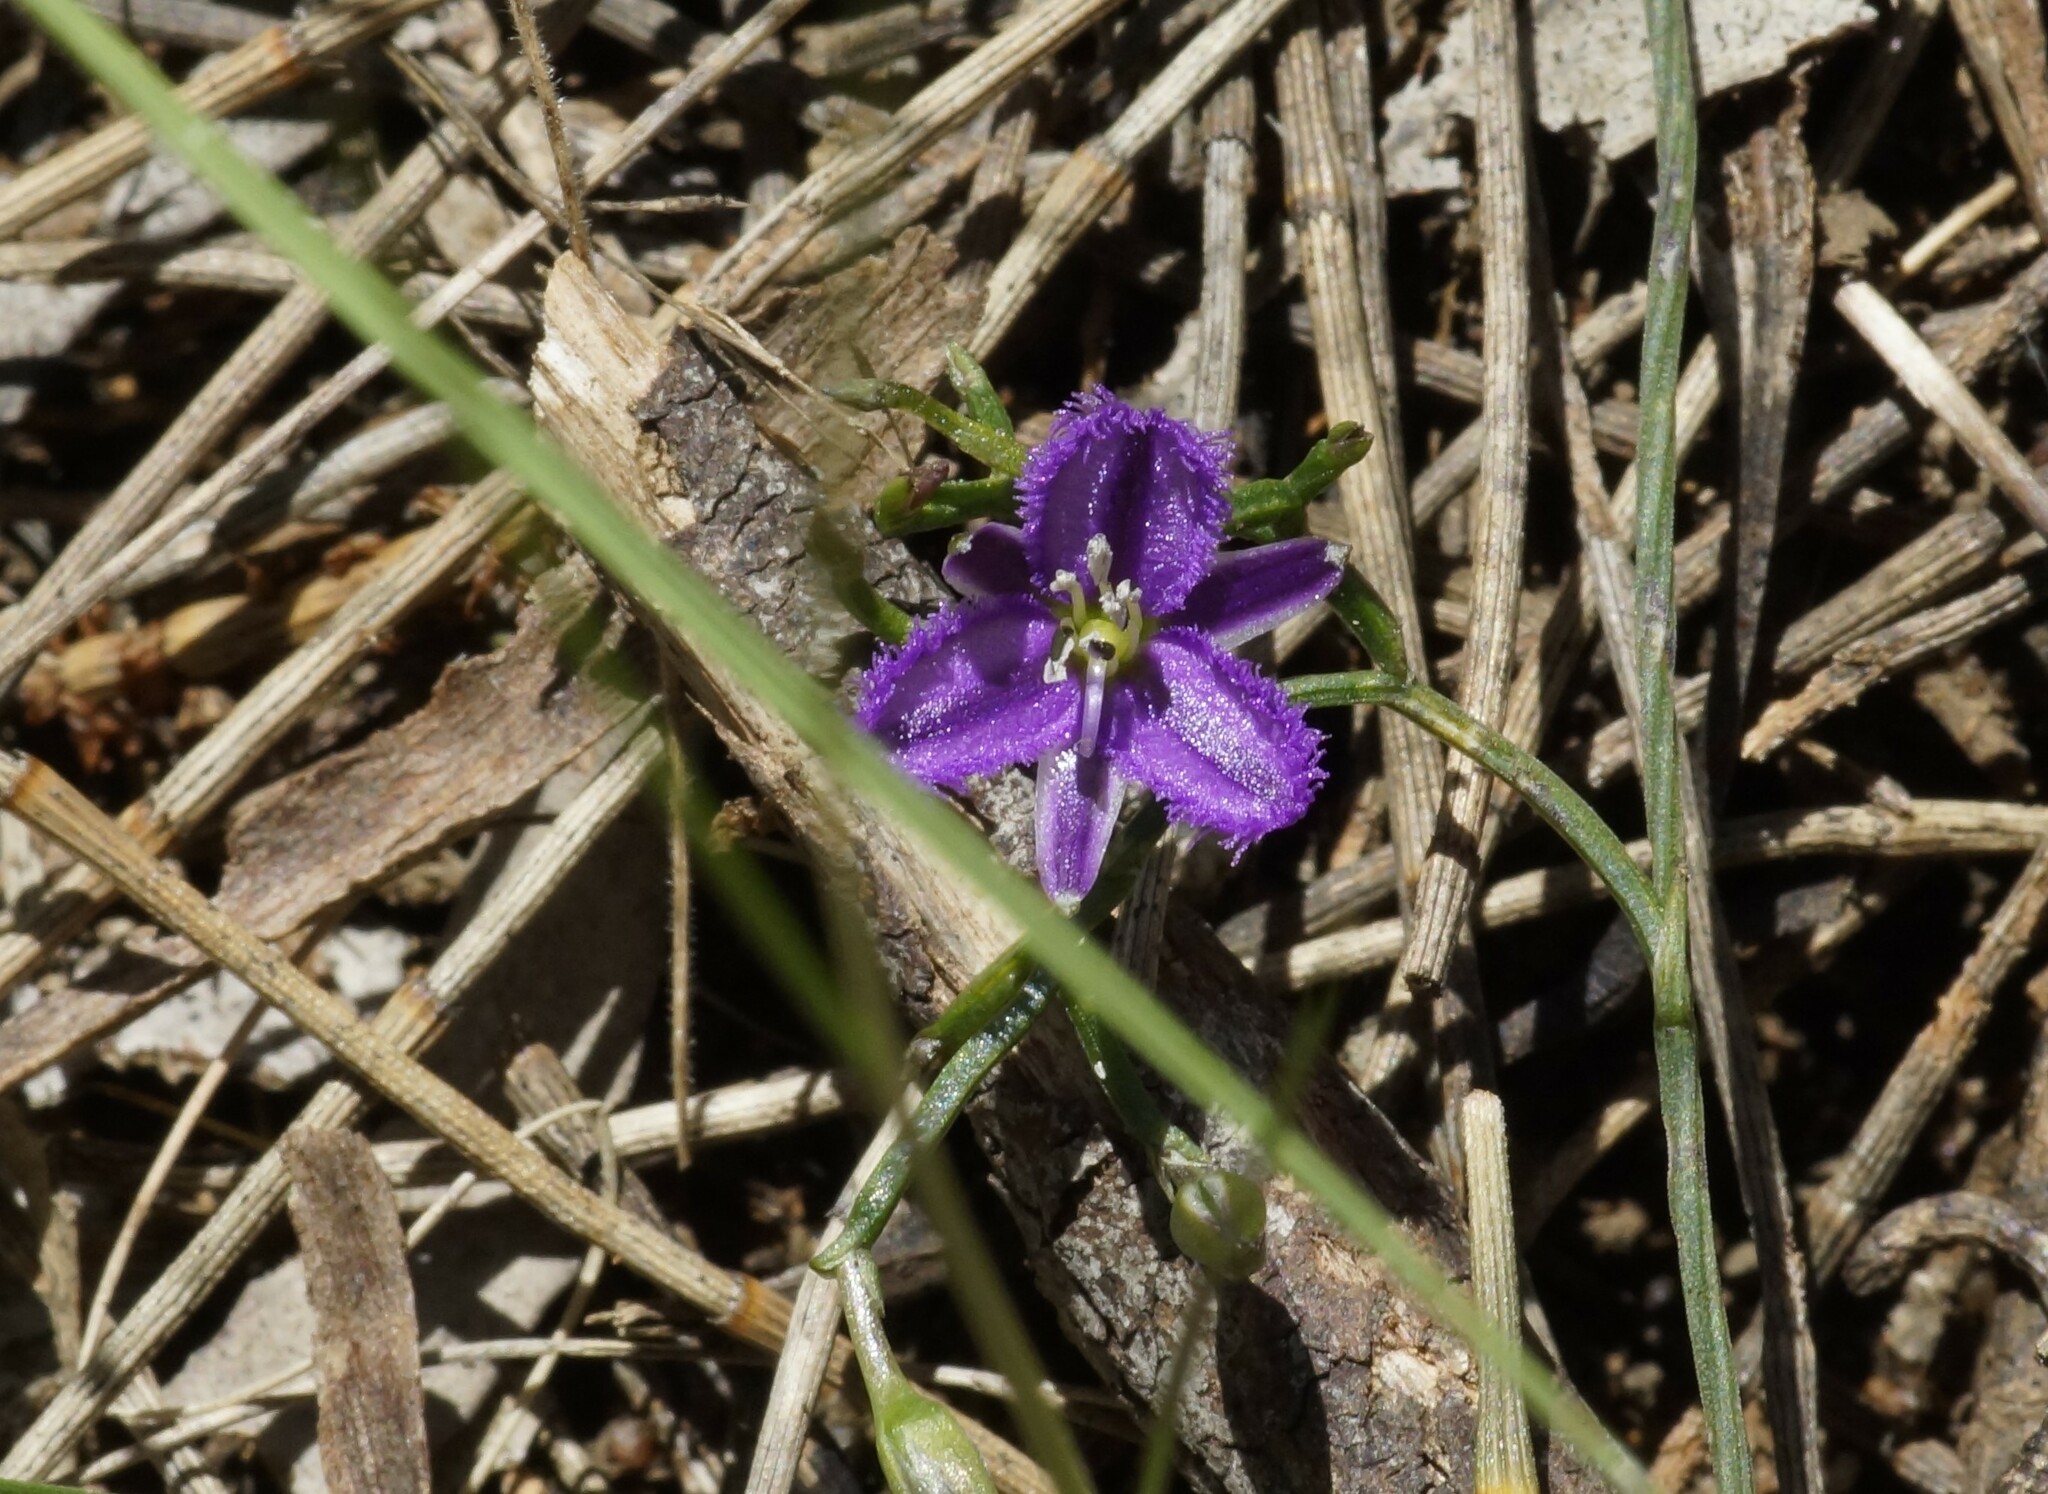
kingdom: Plantae
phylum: Tracheophyta
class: Liliopsida
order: Asparagales
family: Asparagaceae
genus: Thysanotus
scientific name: Thysanotus patersonii
